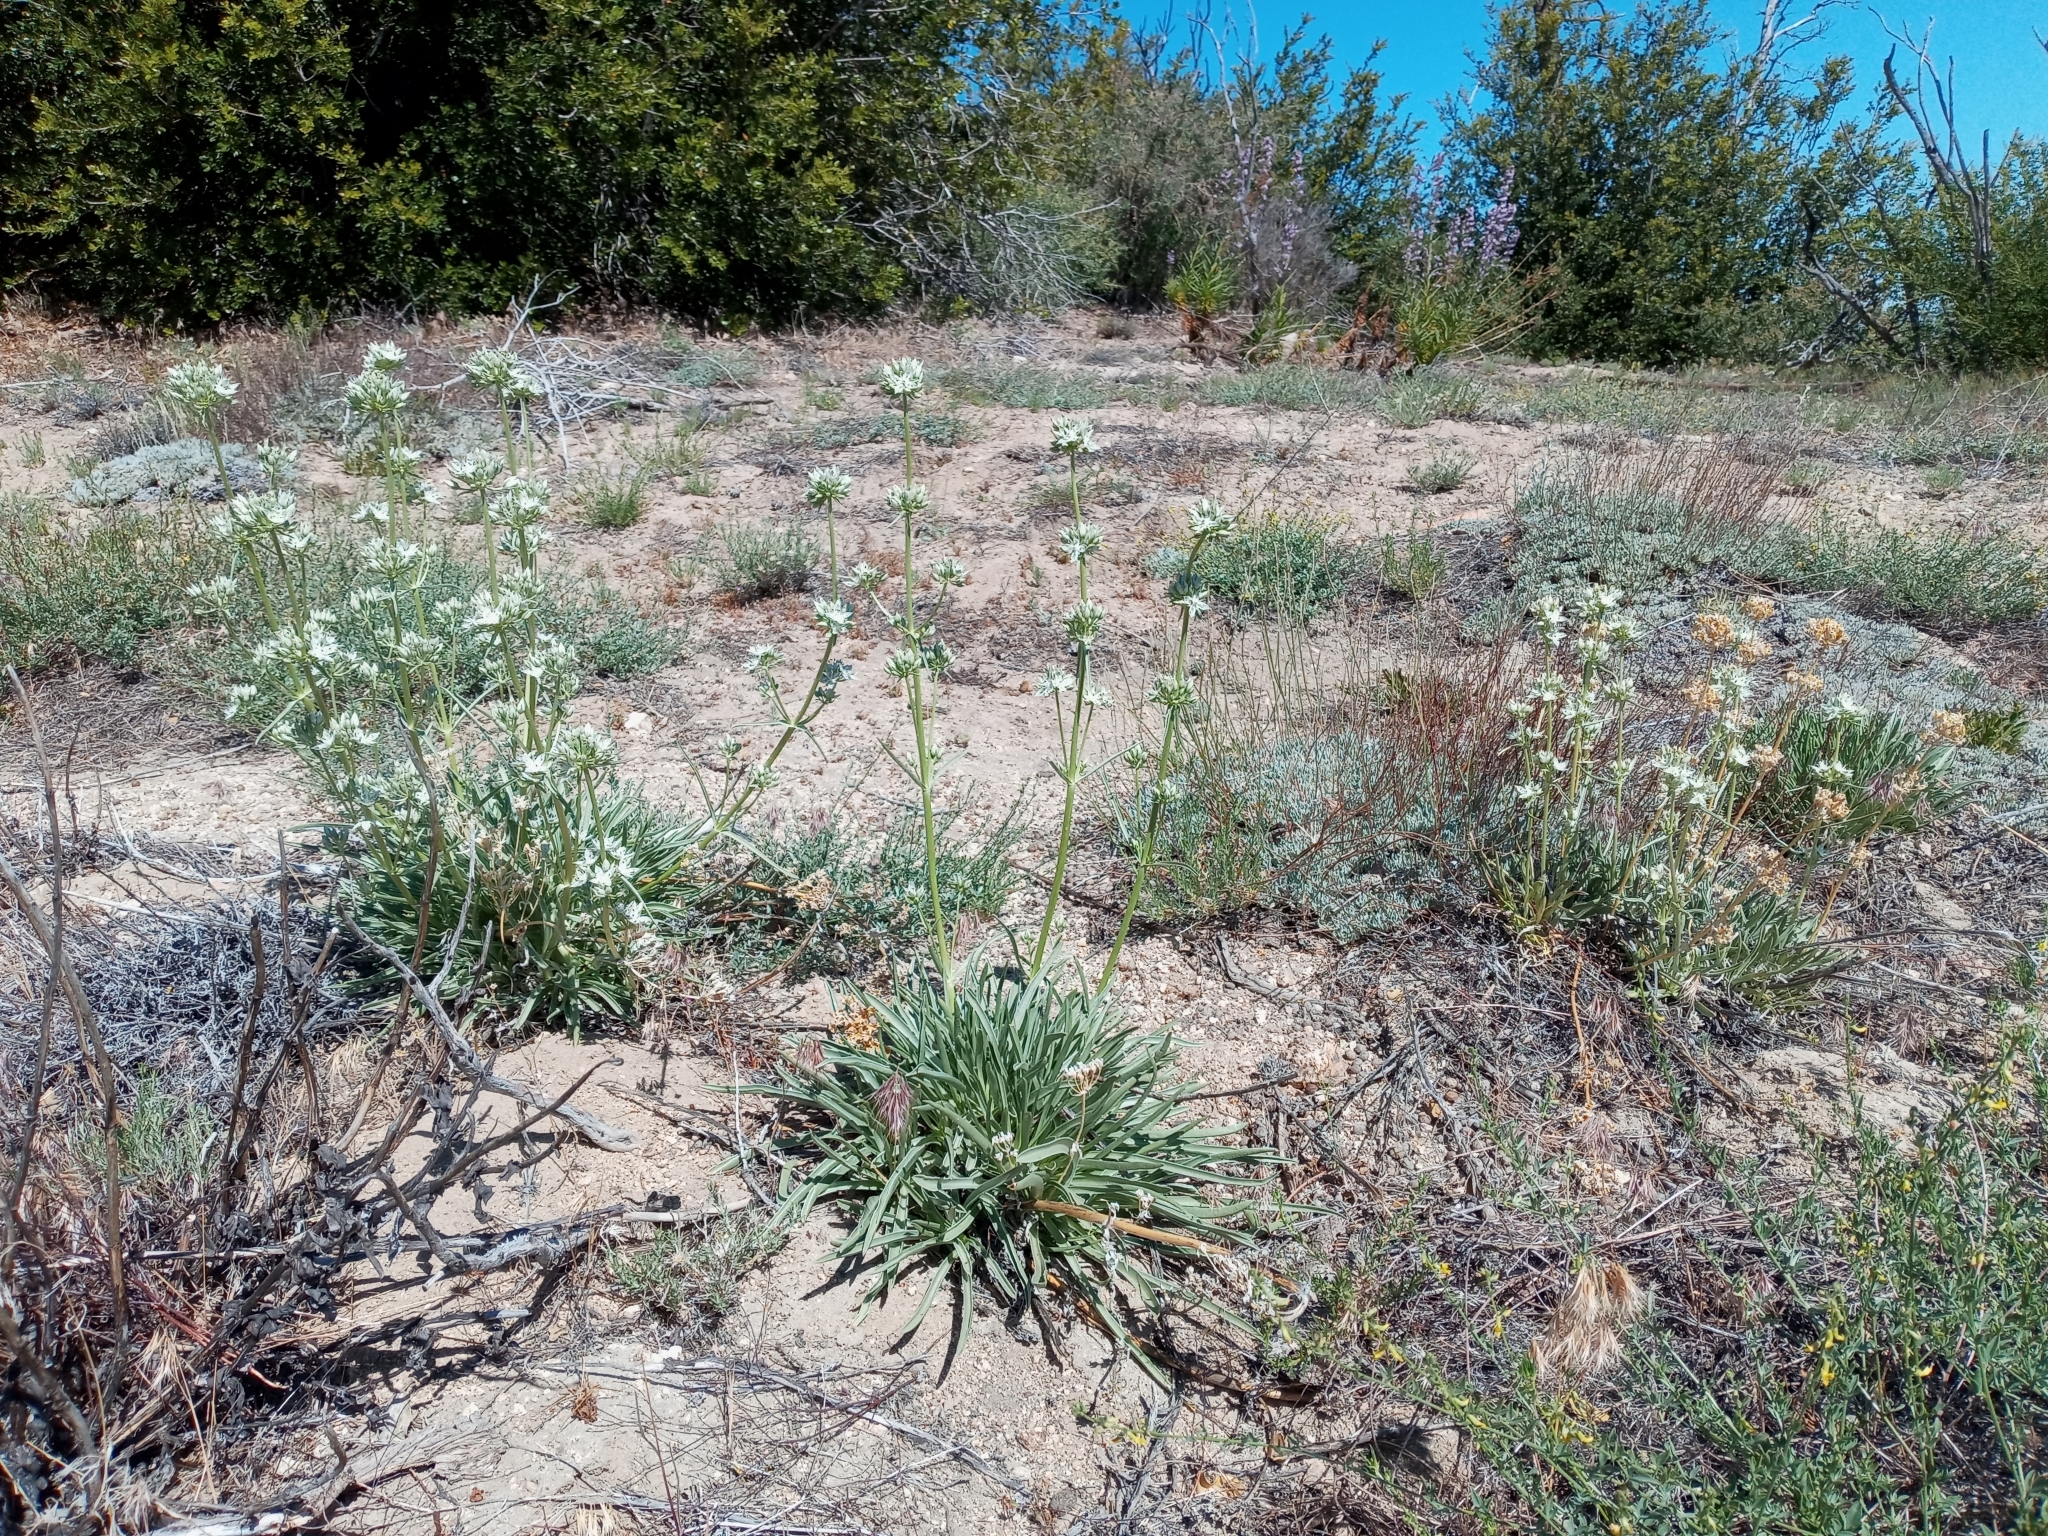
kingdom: Plantae
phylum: Tracheophyta
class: Magnoliopsida
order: Gentianales
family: Gentianaceae
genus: Frasera
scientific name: Frasera neglecta
